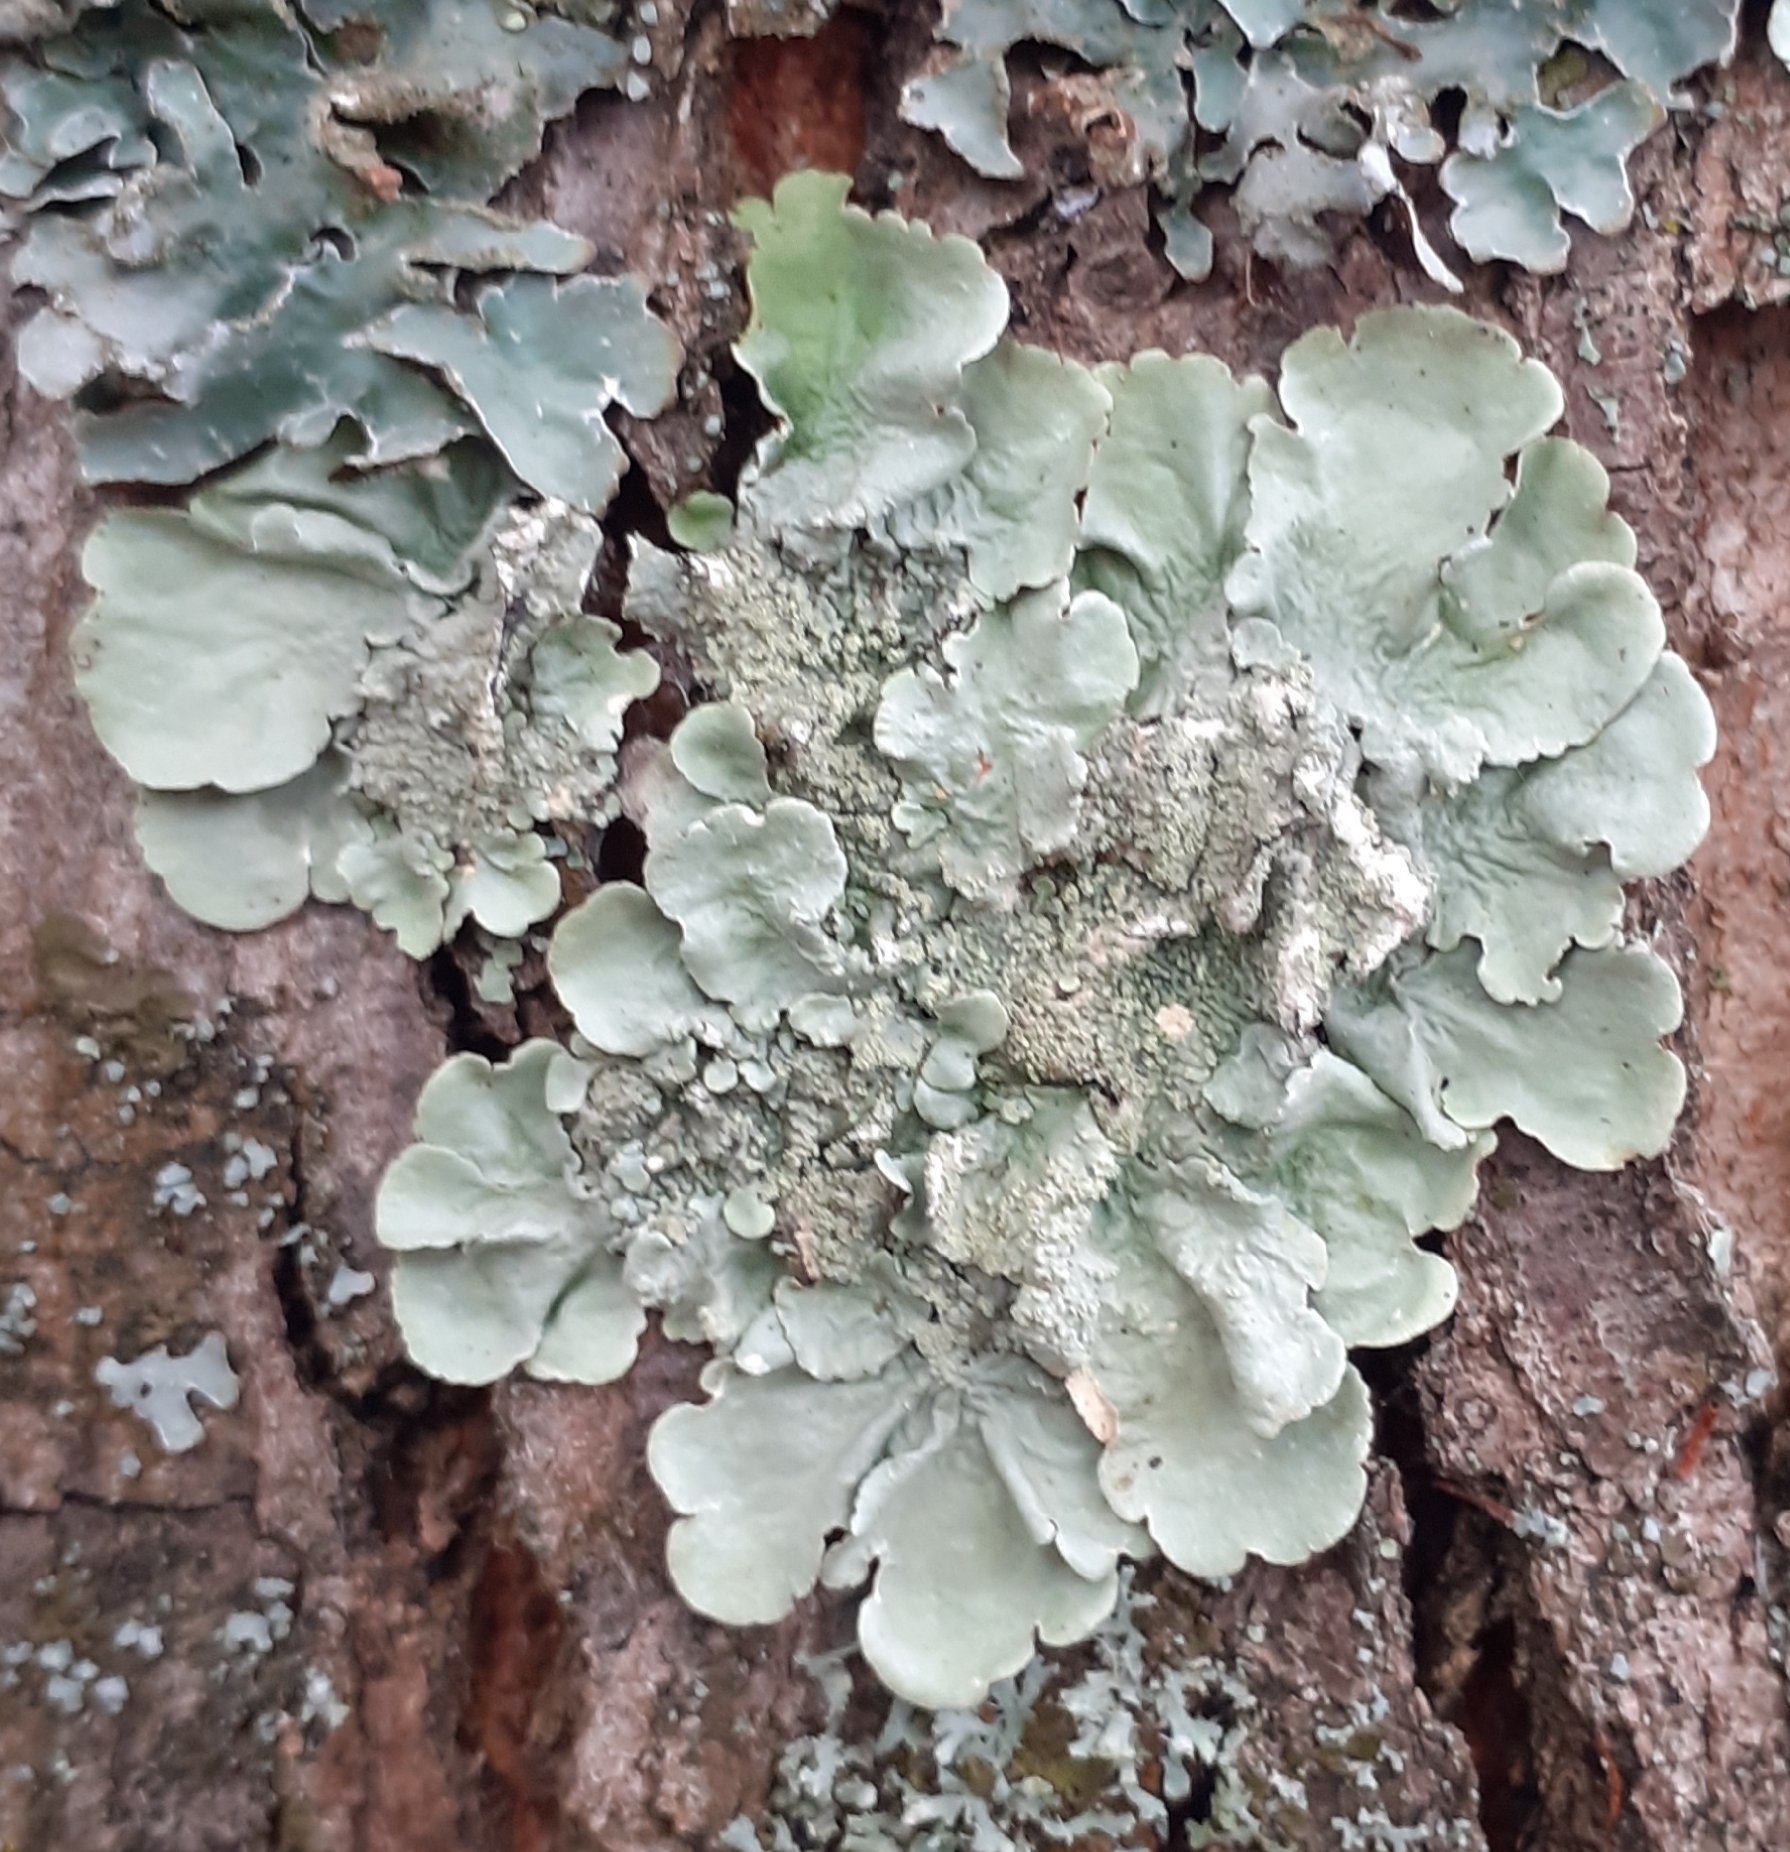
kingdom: Fungi
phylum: Ascomycota
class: Lecanoromycetes
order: Lecanorales
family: Parmeliaceae
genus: Flavoparmelia
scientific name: Flavoparmelia caperata
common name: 40-mile per hour lichen
